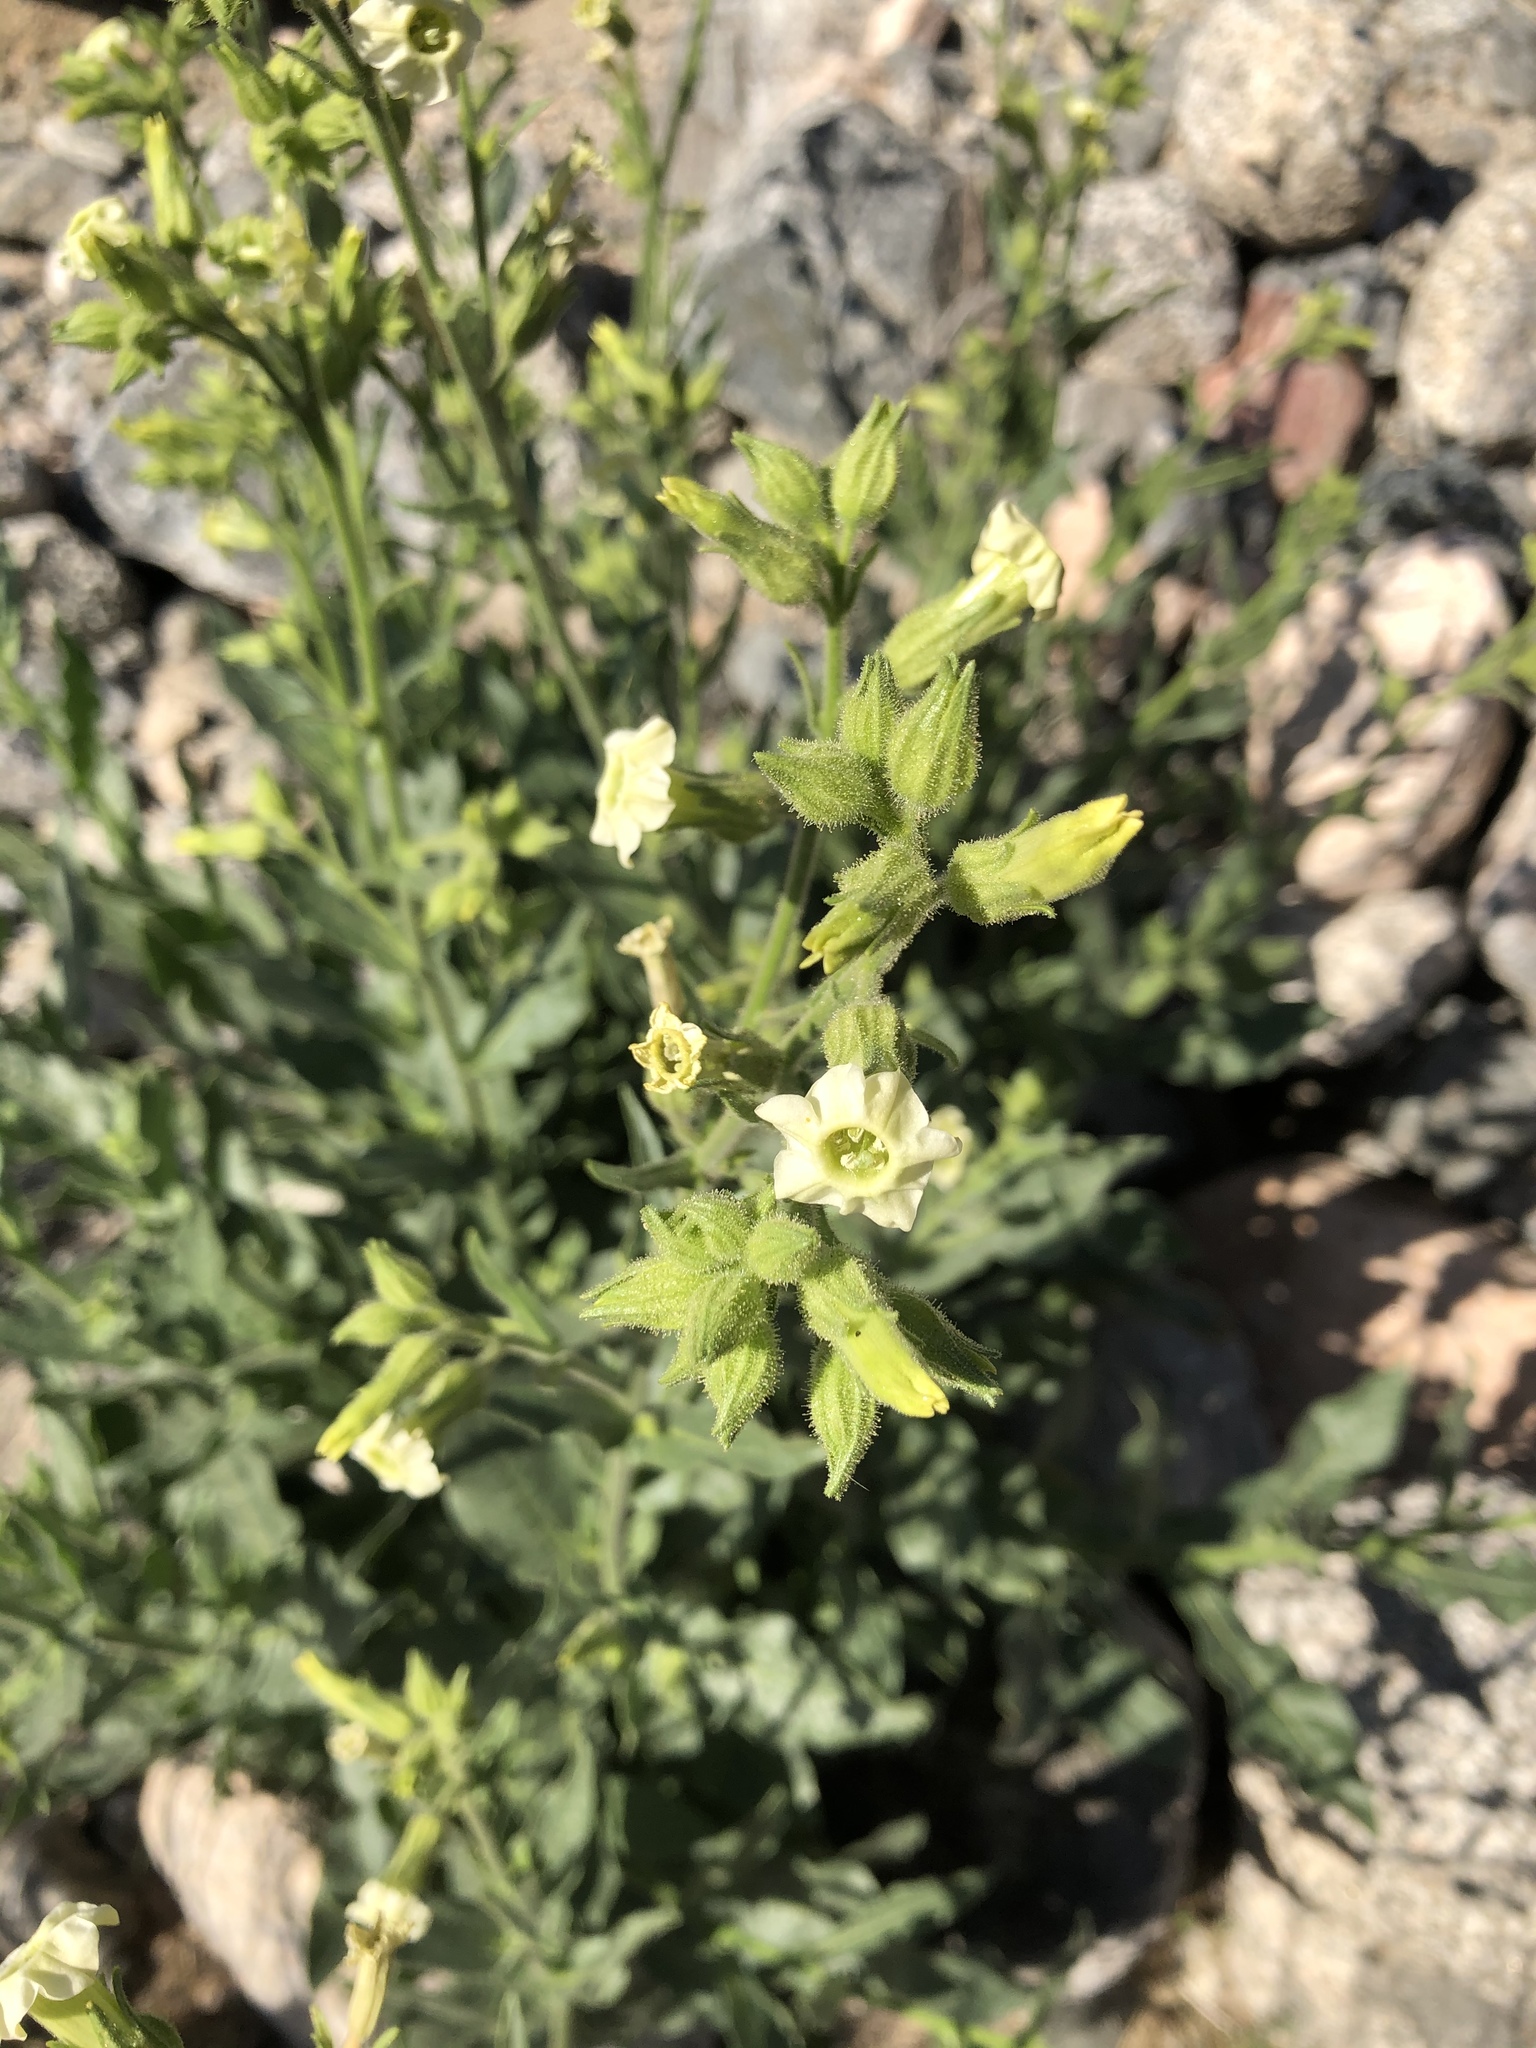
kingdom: Plantae
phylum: Tracheophyta
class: Magnoliopsida
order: Solanales
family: Solanaceae
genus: Nicotiana
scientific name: Nicotiana obtusifolia
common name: Desert tobacco
